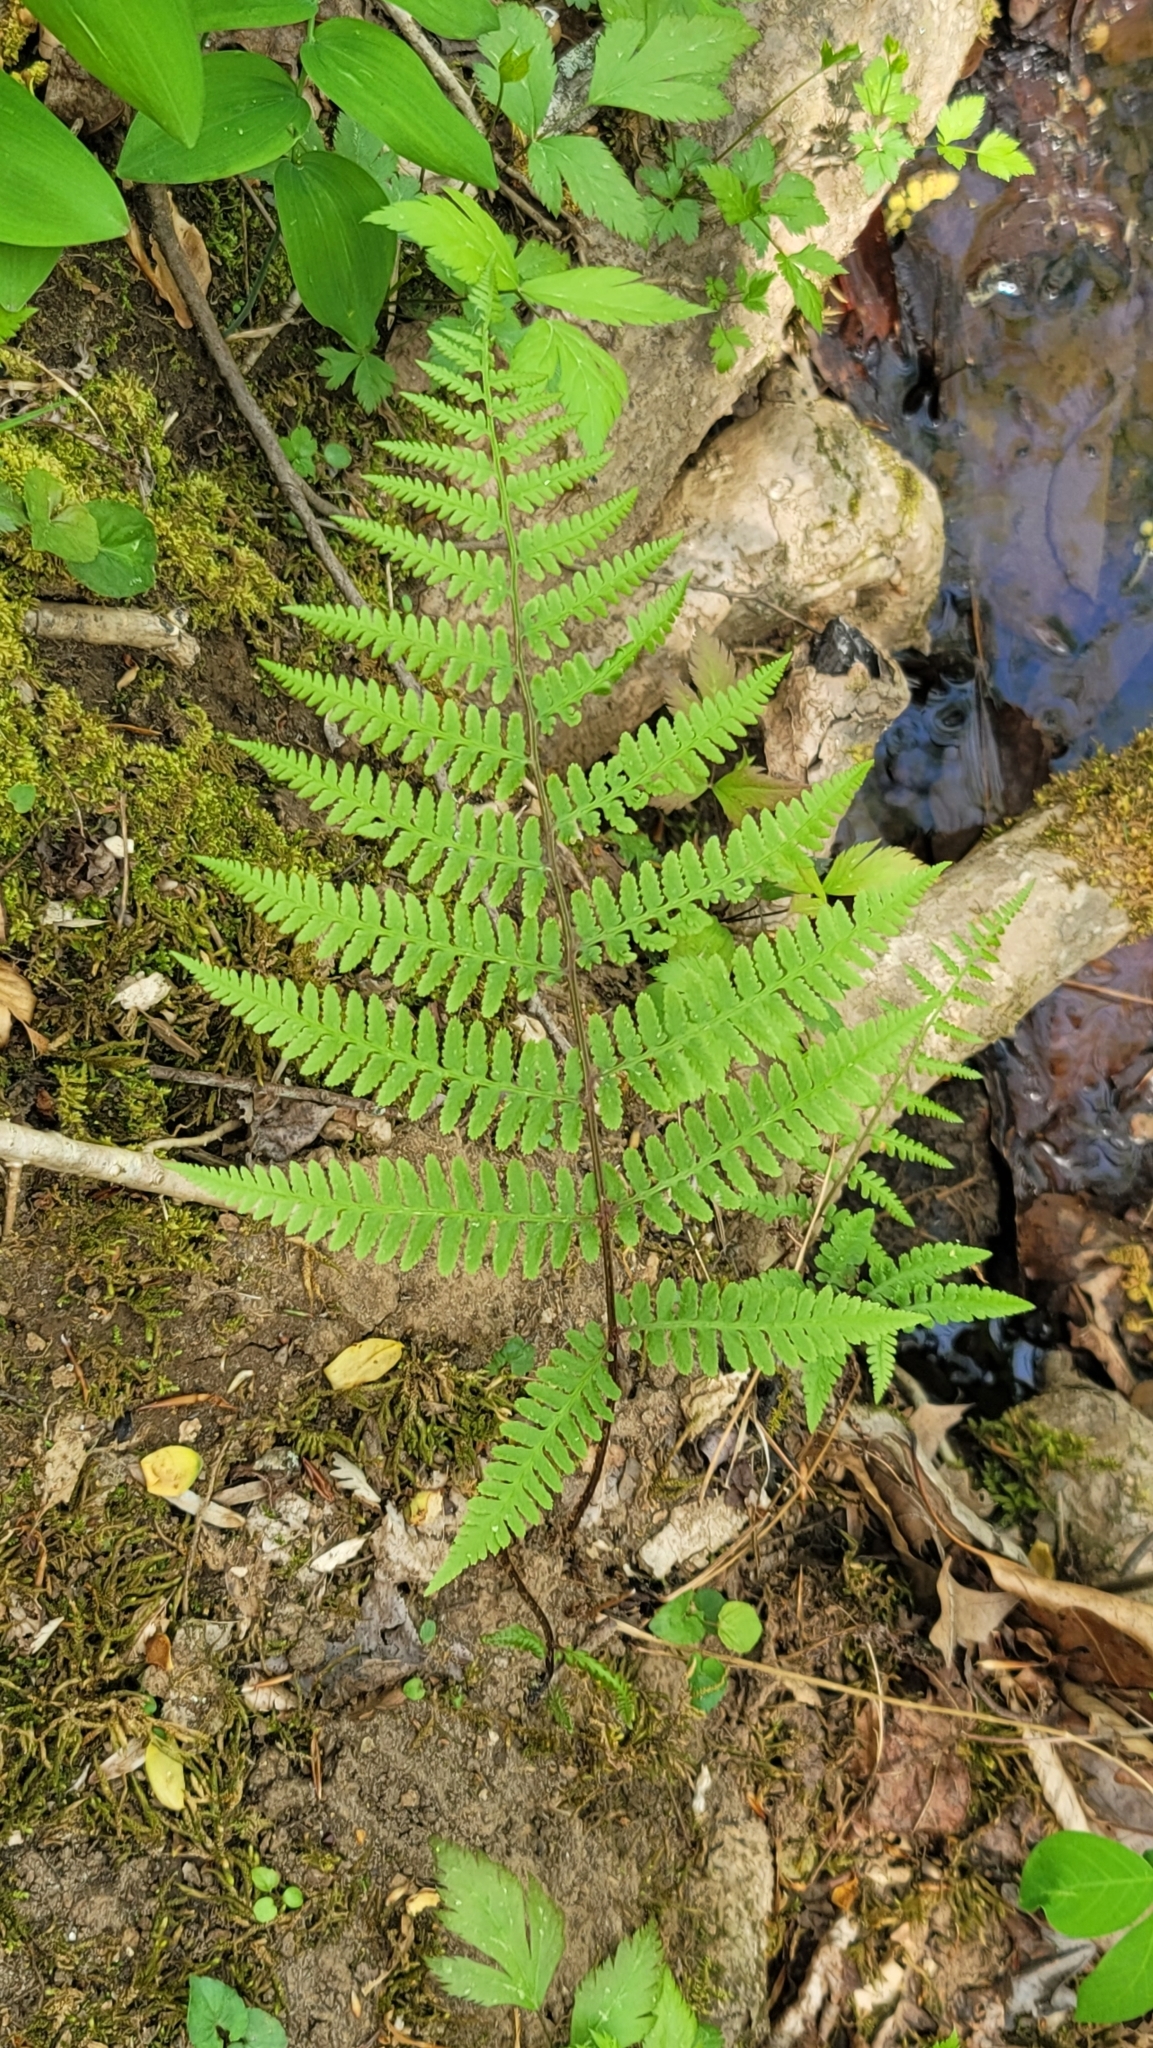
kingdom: Plantae
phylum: Tracheophyta
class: Polypodiopsida
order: Polypodiales
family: Athyriaceae
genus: Athyrium
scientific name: Athyrium asplenioides
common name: Southern lady fern
